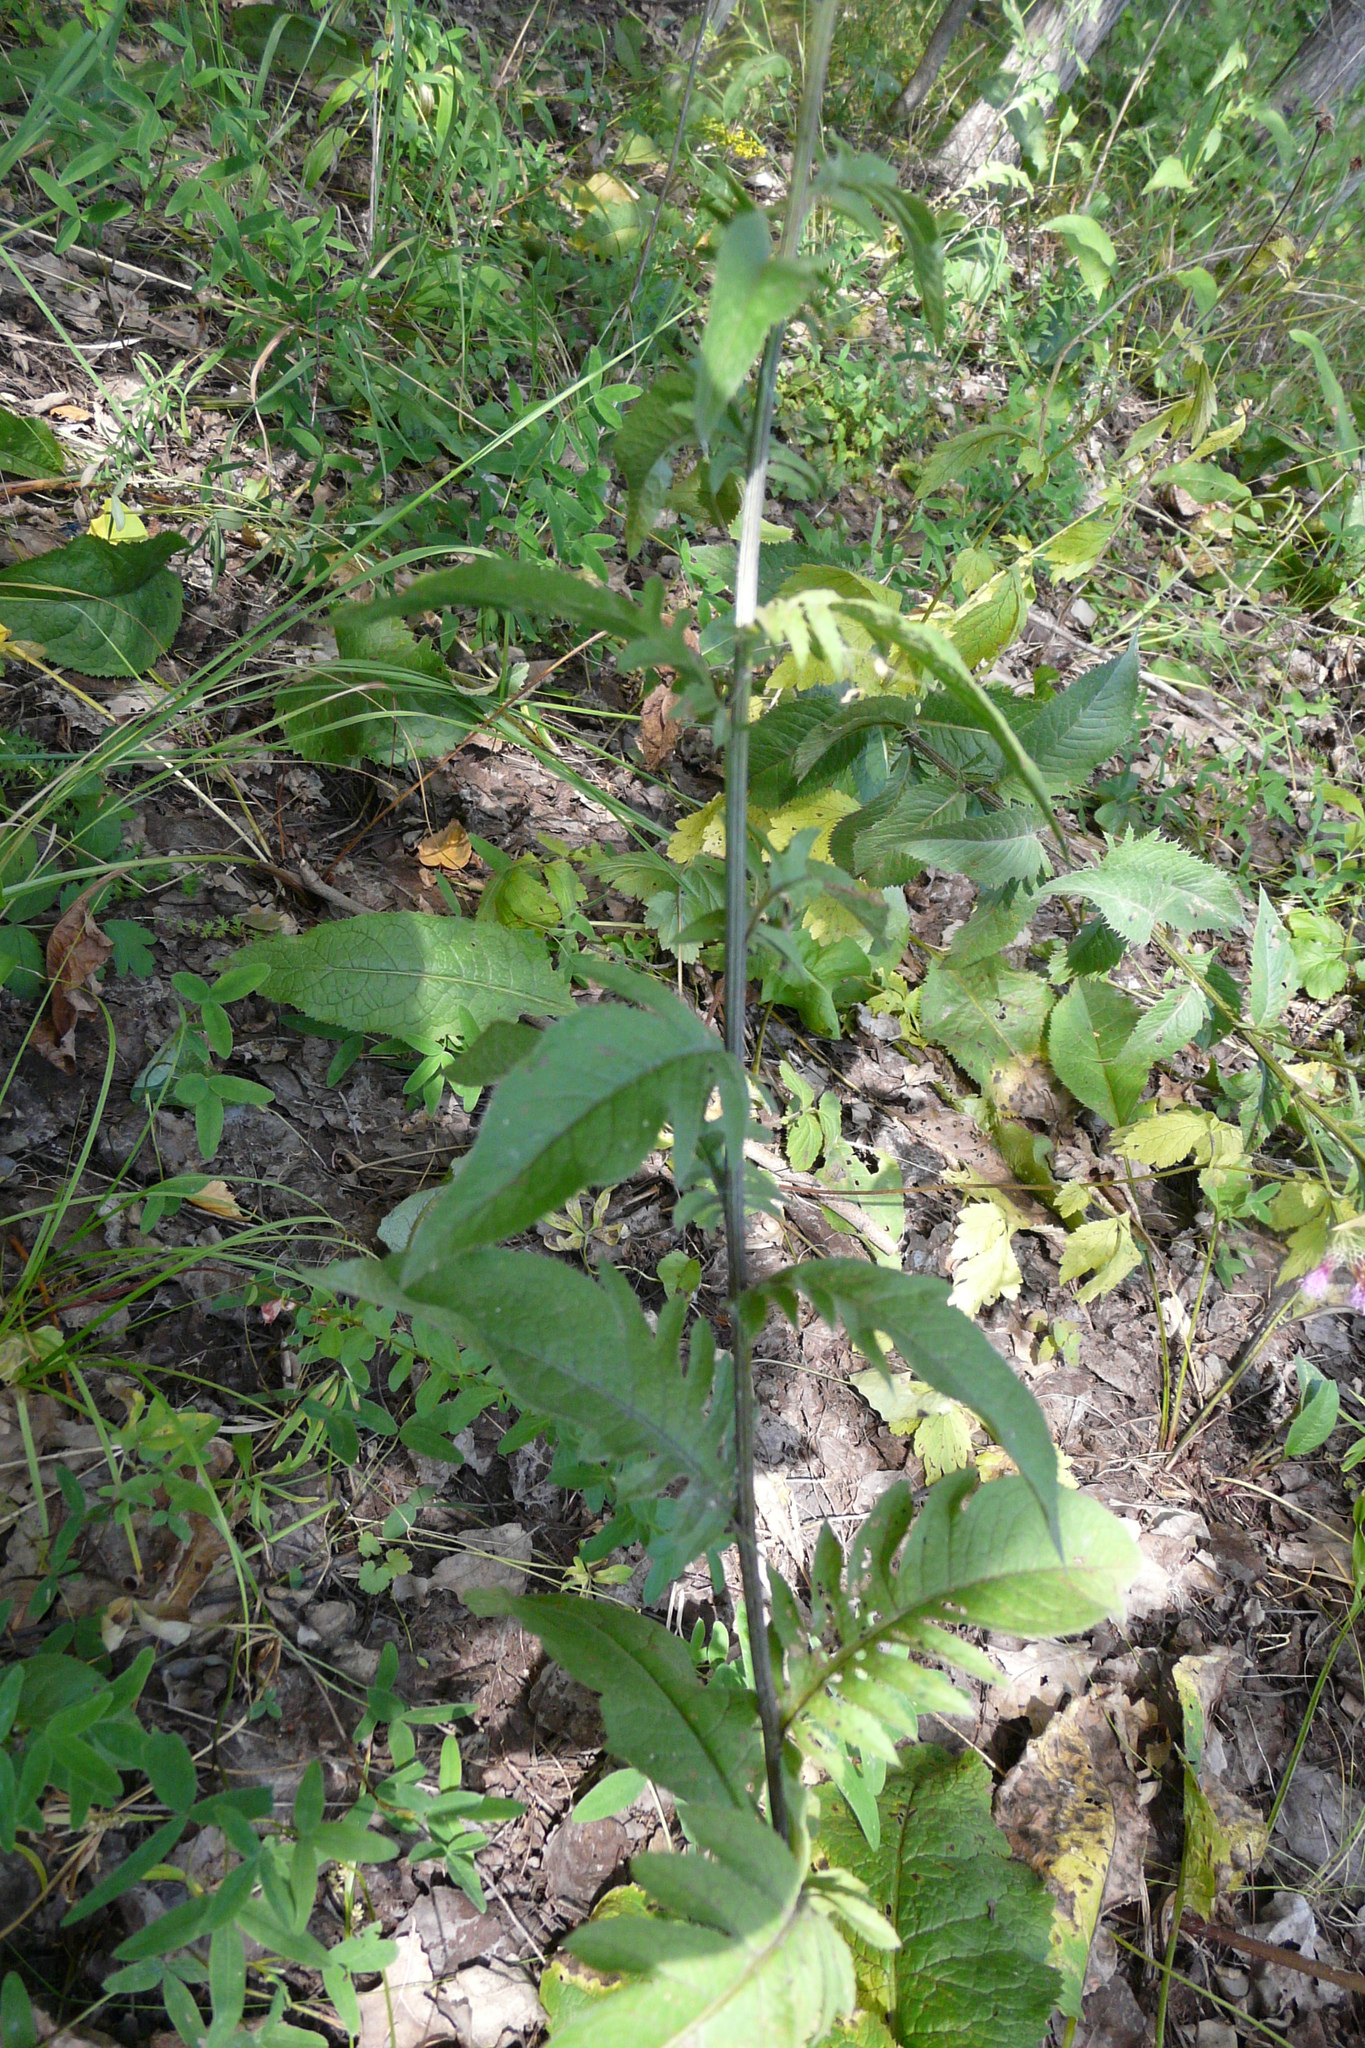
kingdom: Plantae
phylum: Tracheophyta
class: Magnoliopsida
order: Asterales
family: Asteraceae
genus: Serratula
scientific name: Serratula tinctoria
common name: Saw-wort
